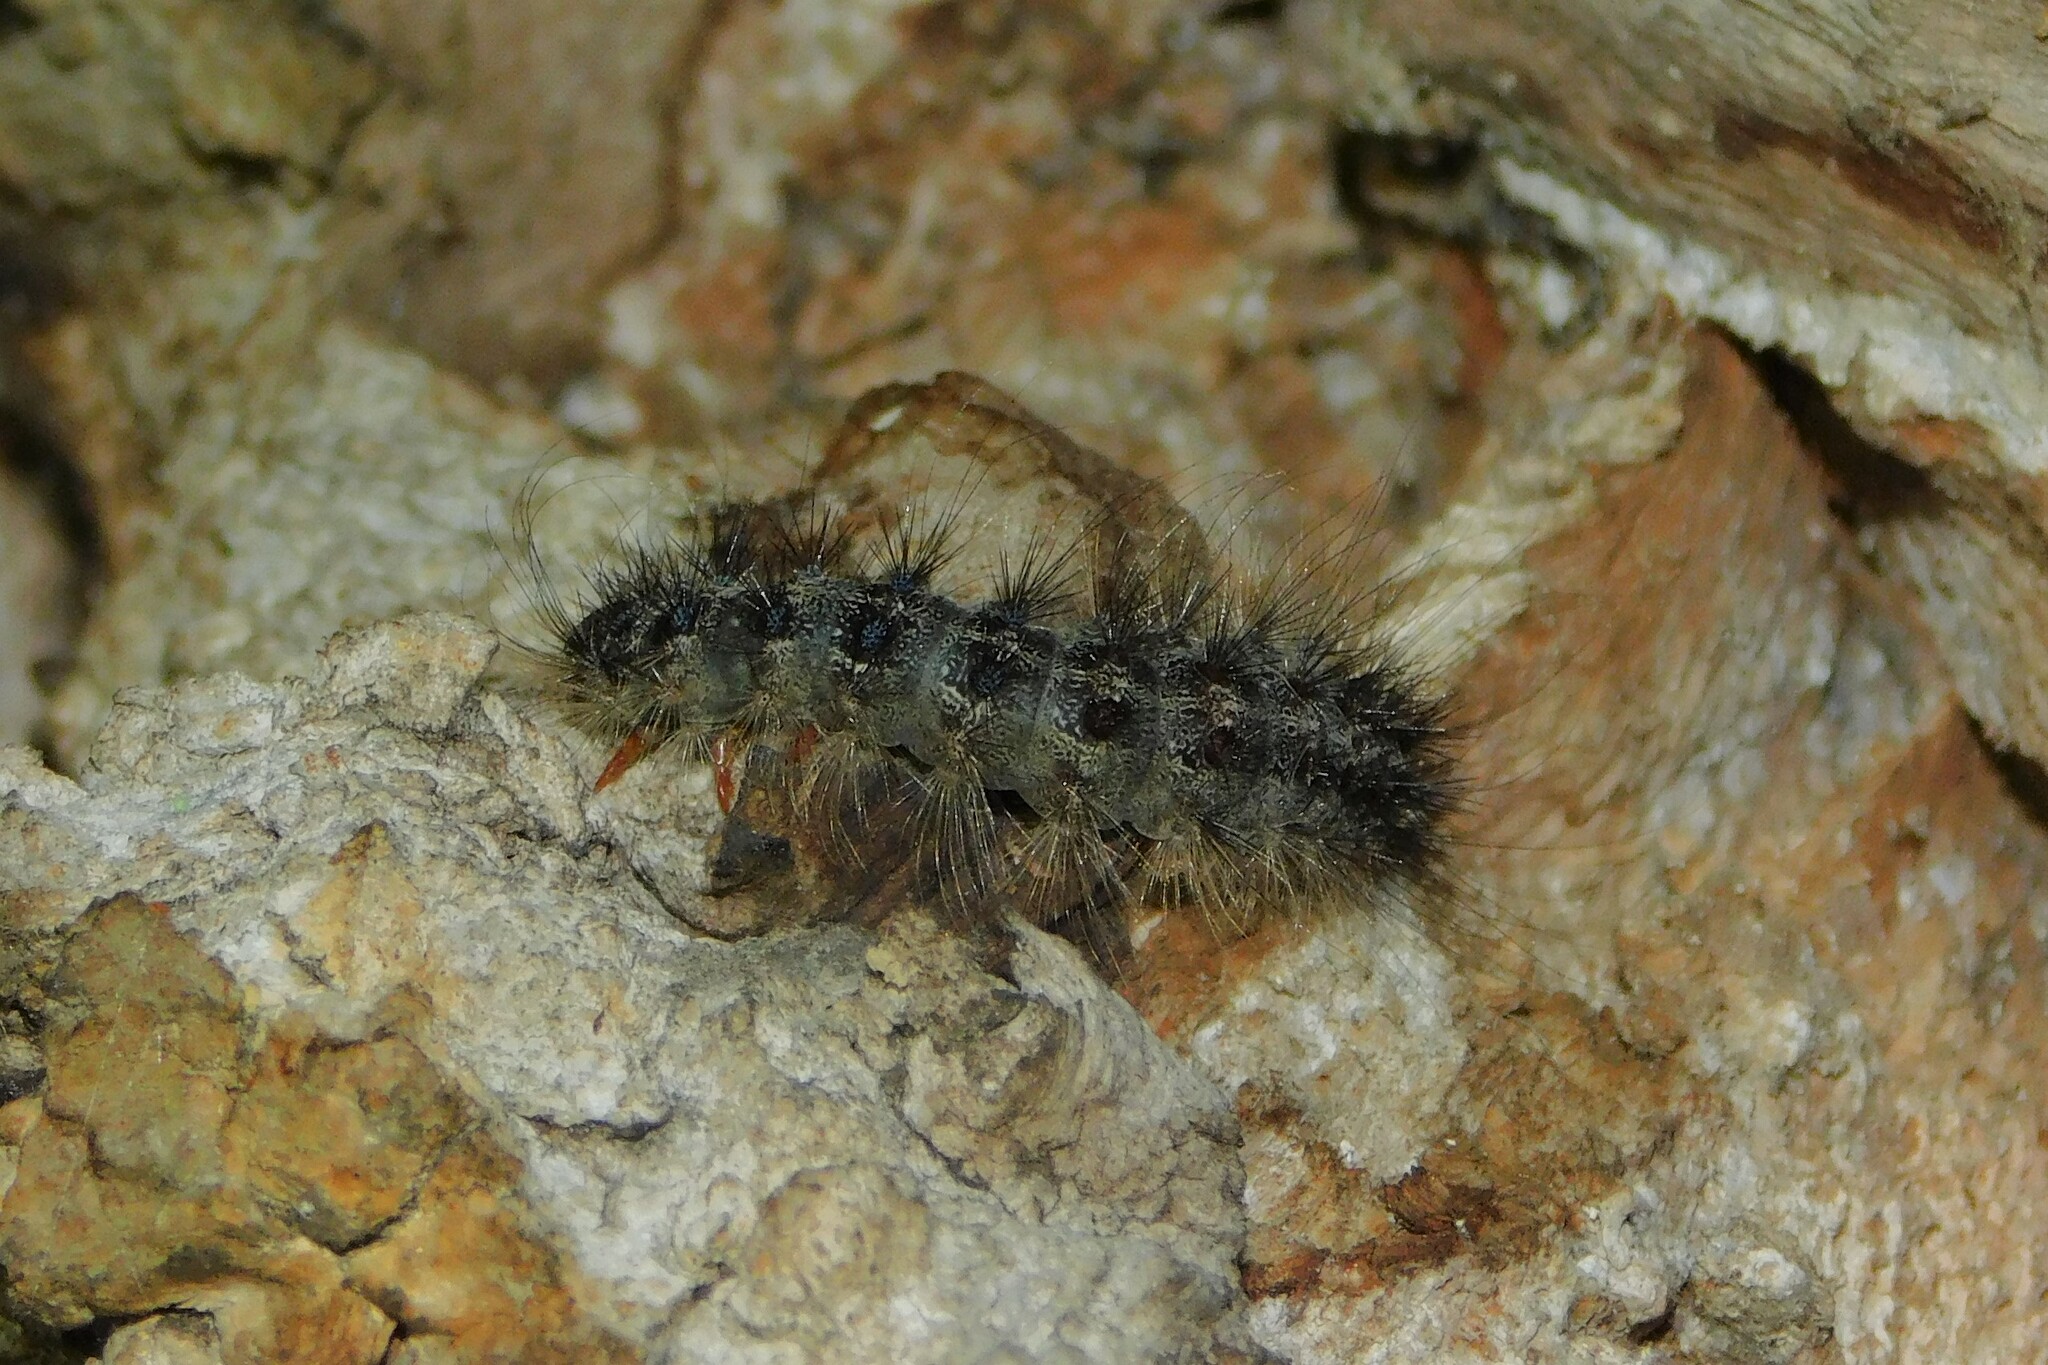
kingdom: Animalia
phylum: Arthropoda
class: Insecta
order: Lepidoptera
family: Erebidae
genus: Lymantria
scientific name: Lymantria dispar
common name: Gypsy moth
